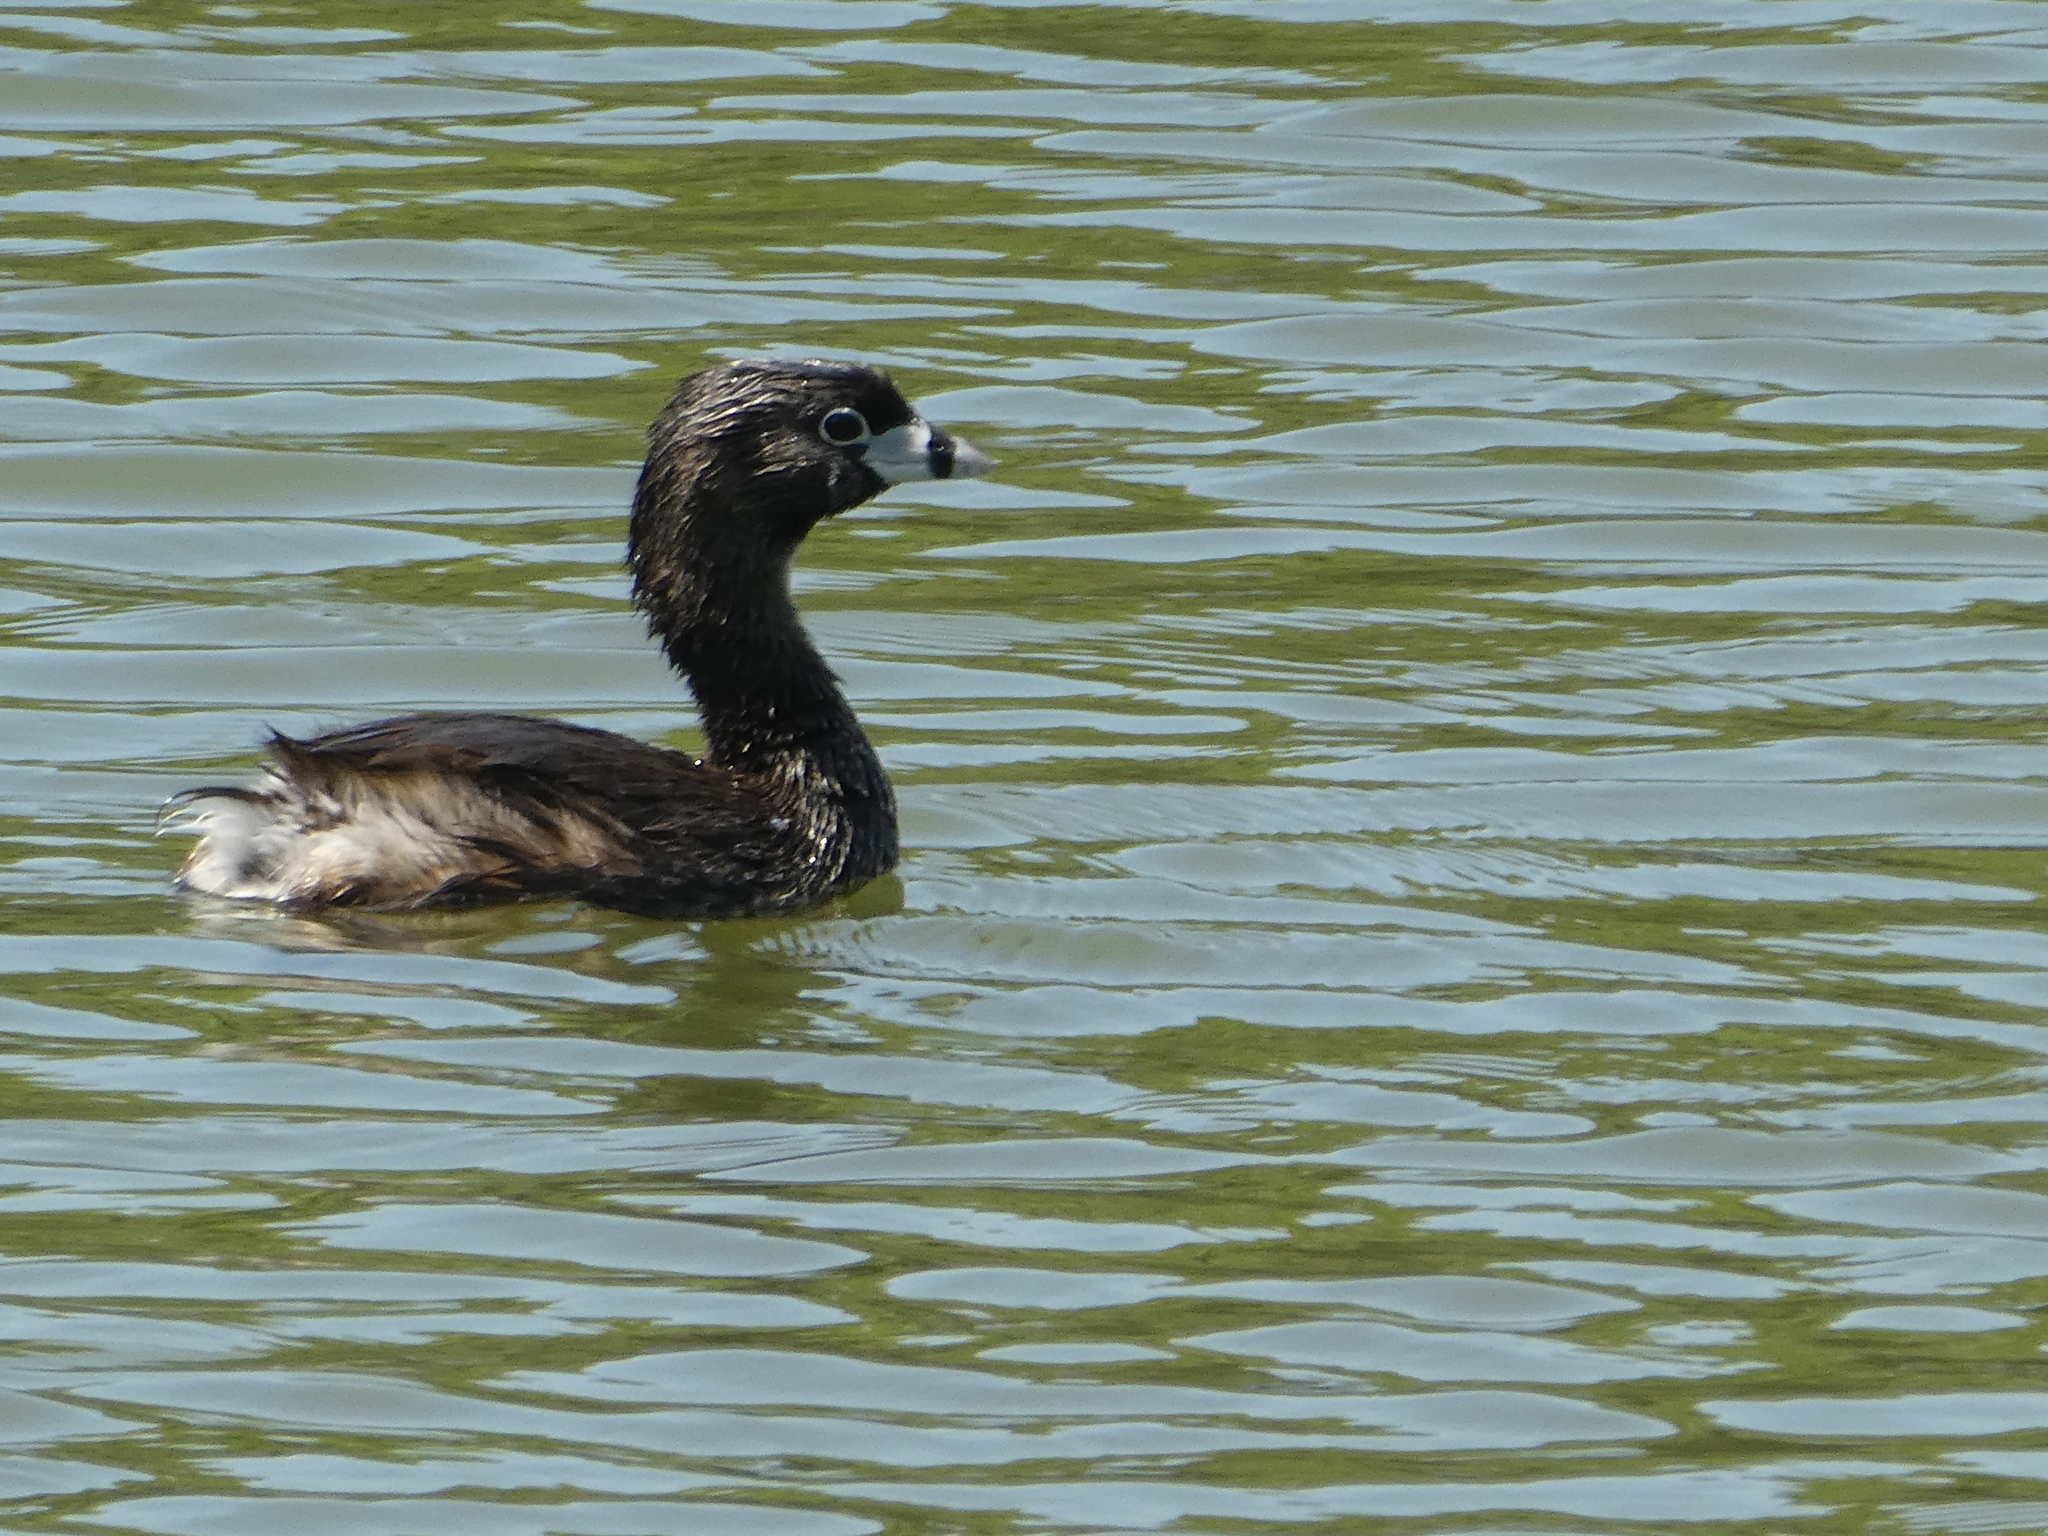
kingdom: Animalia
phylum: Chordata
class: Aves
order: Podicipediformes
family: Podicipedidae
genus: Podilymbus
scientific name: Podilymbus podiceps
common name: Pied-billed grebe
